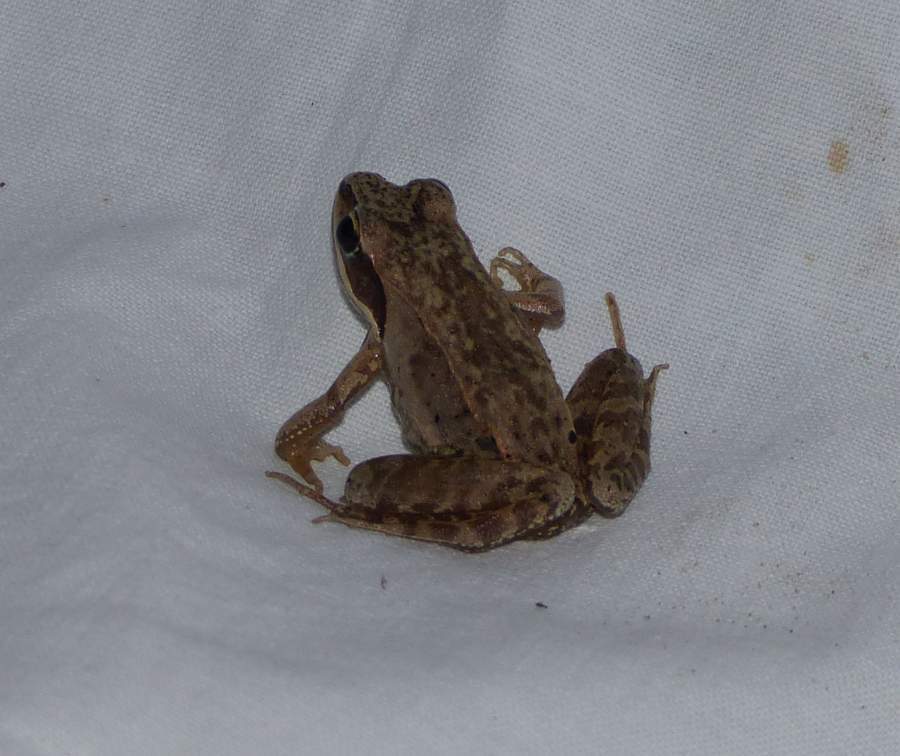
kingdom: Animalia
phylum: Chordata
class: Amphibia
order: Anura
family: Ranidae
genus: Lithobates
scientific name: Lithobates sylvaticus
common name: Wood frog
